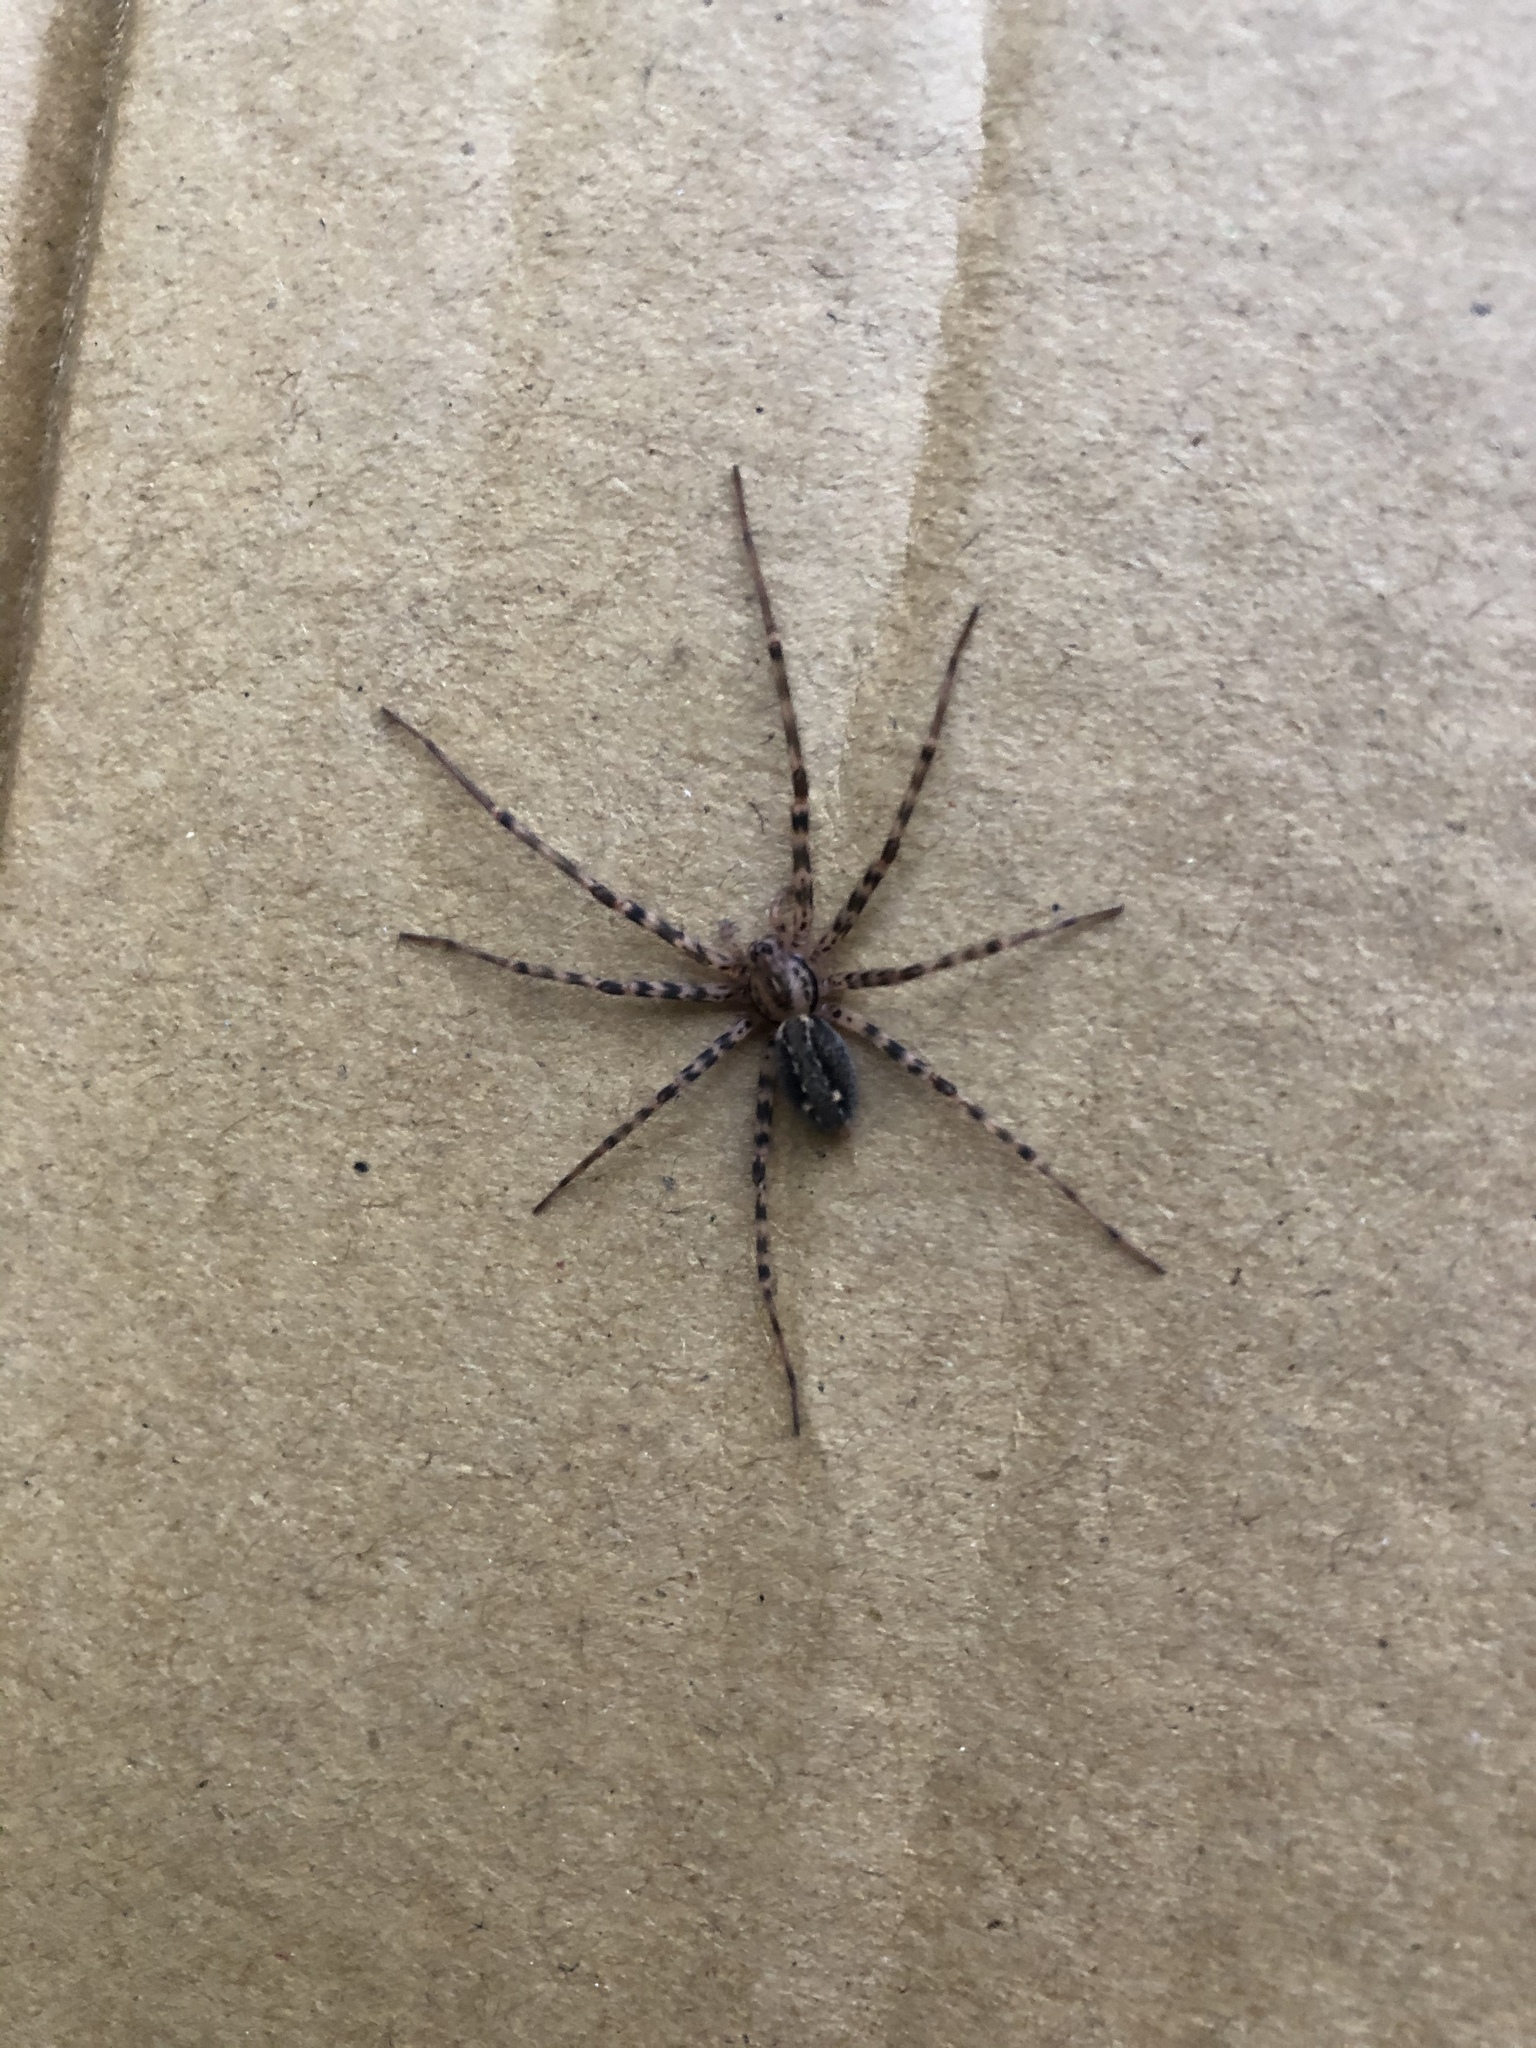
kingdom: Animalia
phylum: Arthropoda
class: Arachnida
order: Araneae
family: Stiphidiidae
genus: Stiphidion
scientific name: Stiphidion facetum
